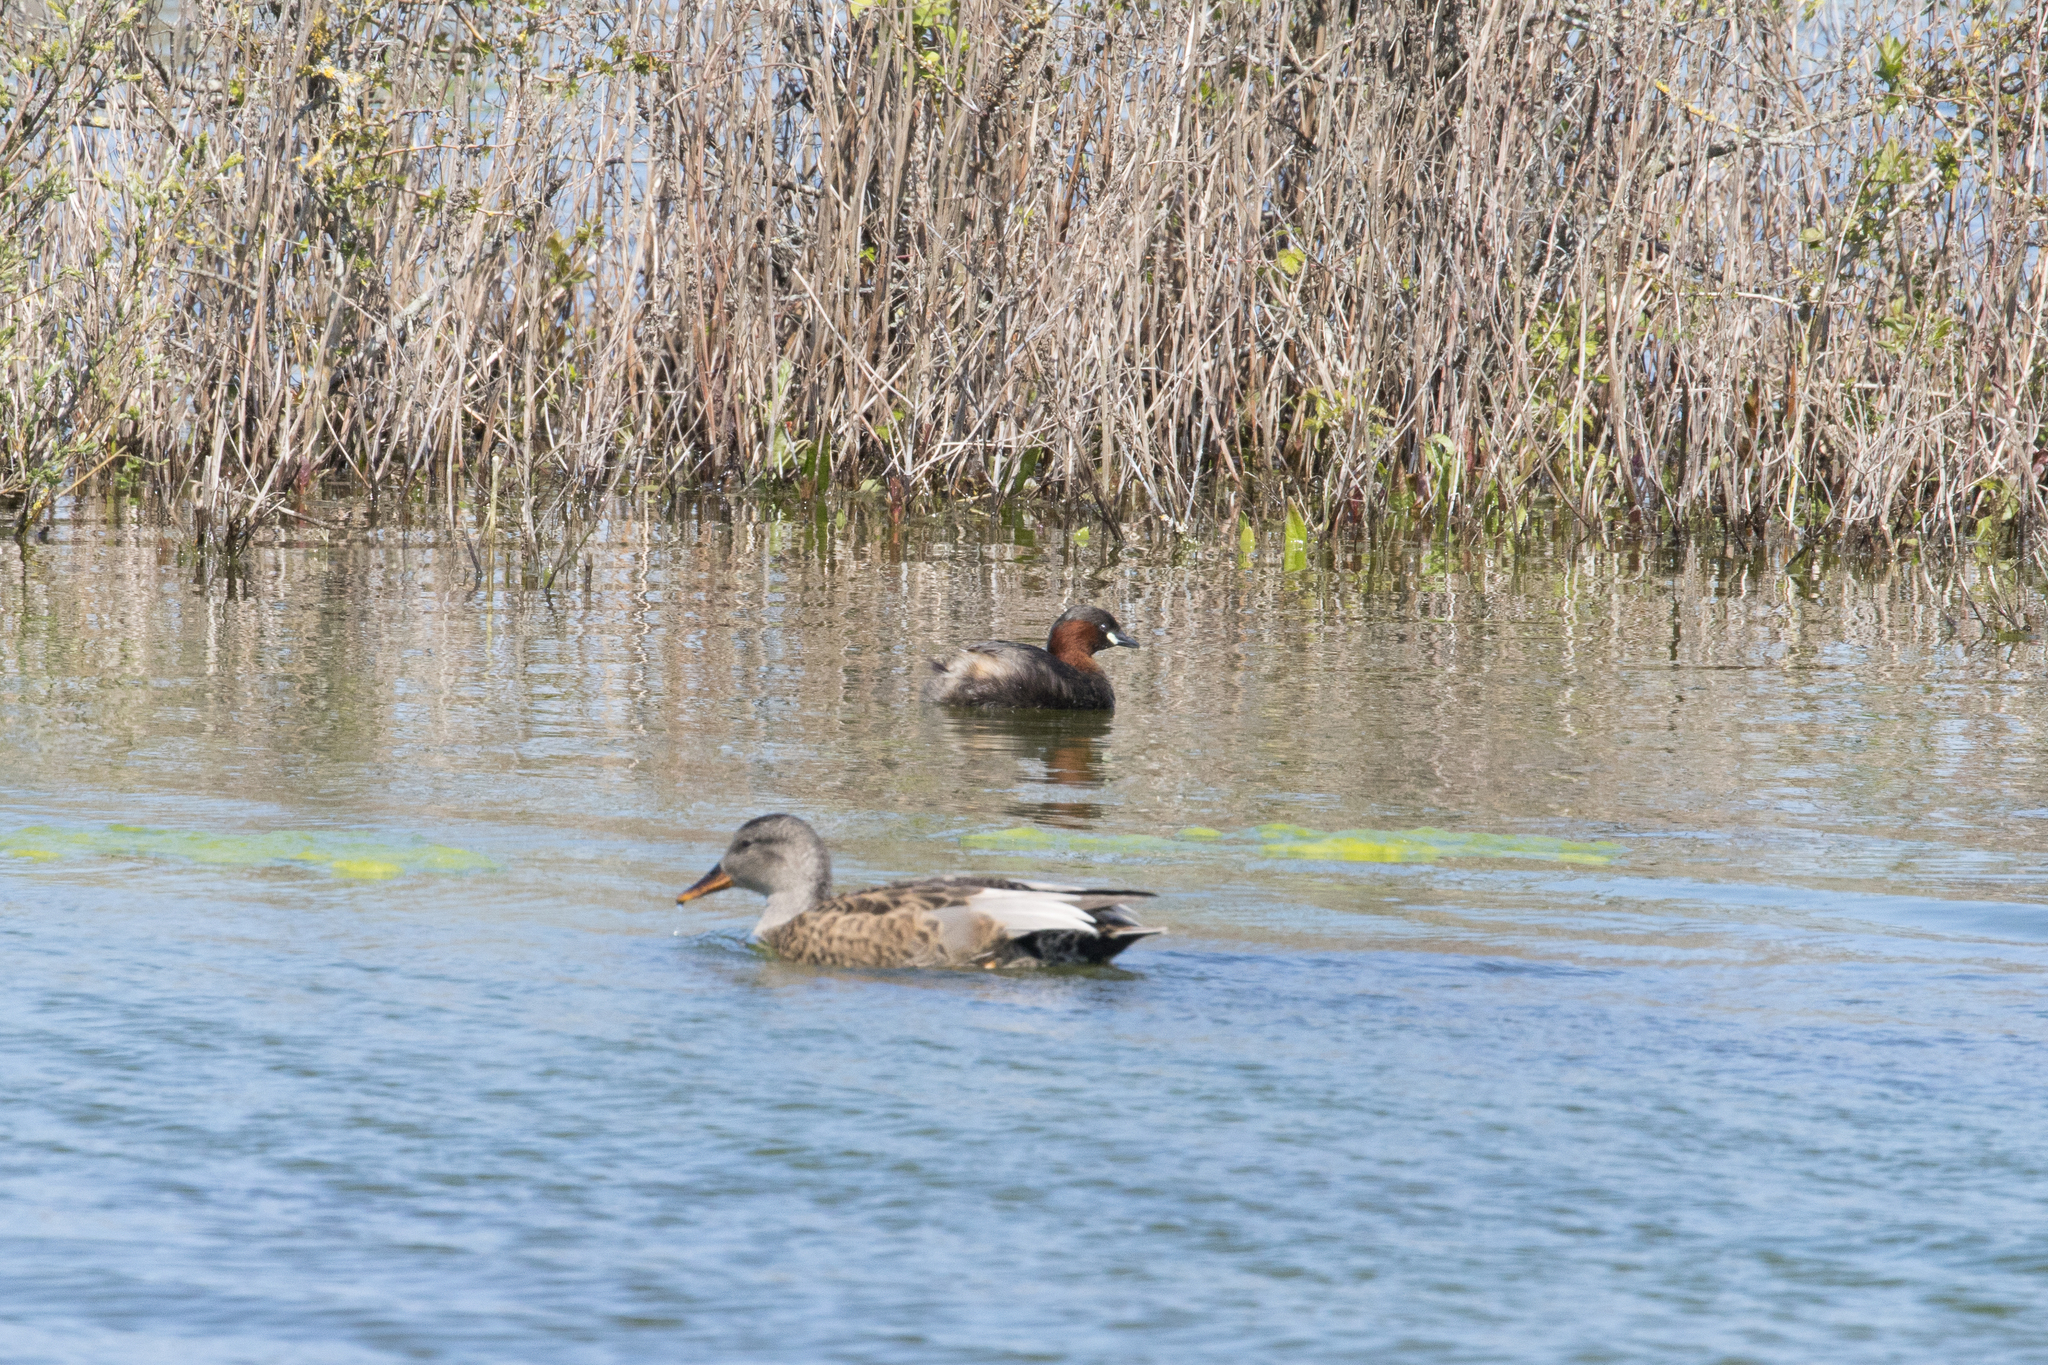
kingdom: Animalia
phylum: Chordata
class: Aves
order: Podicipediformes
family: Podicipedidae
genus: Tachybaptus
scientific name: Tachybaptus ruficollis
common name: Little grebe
